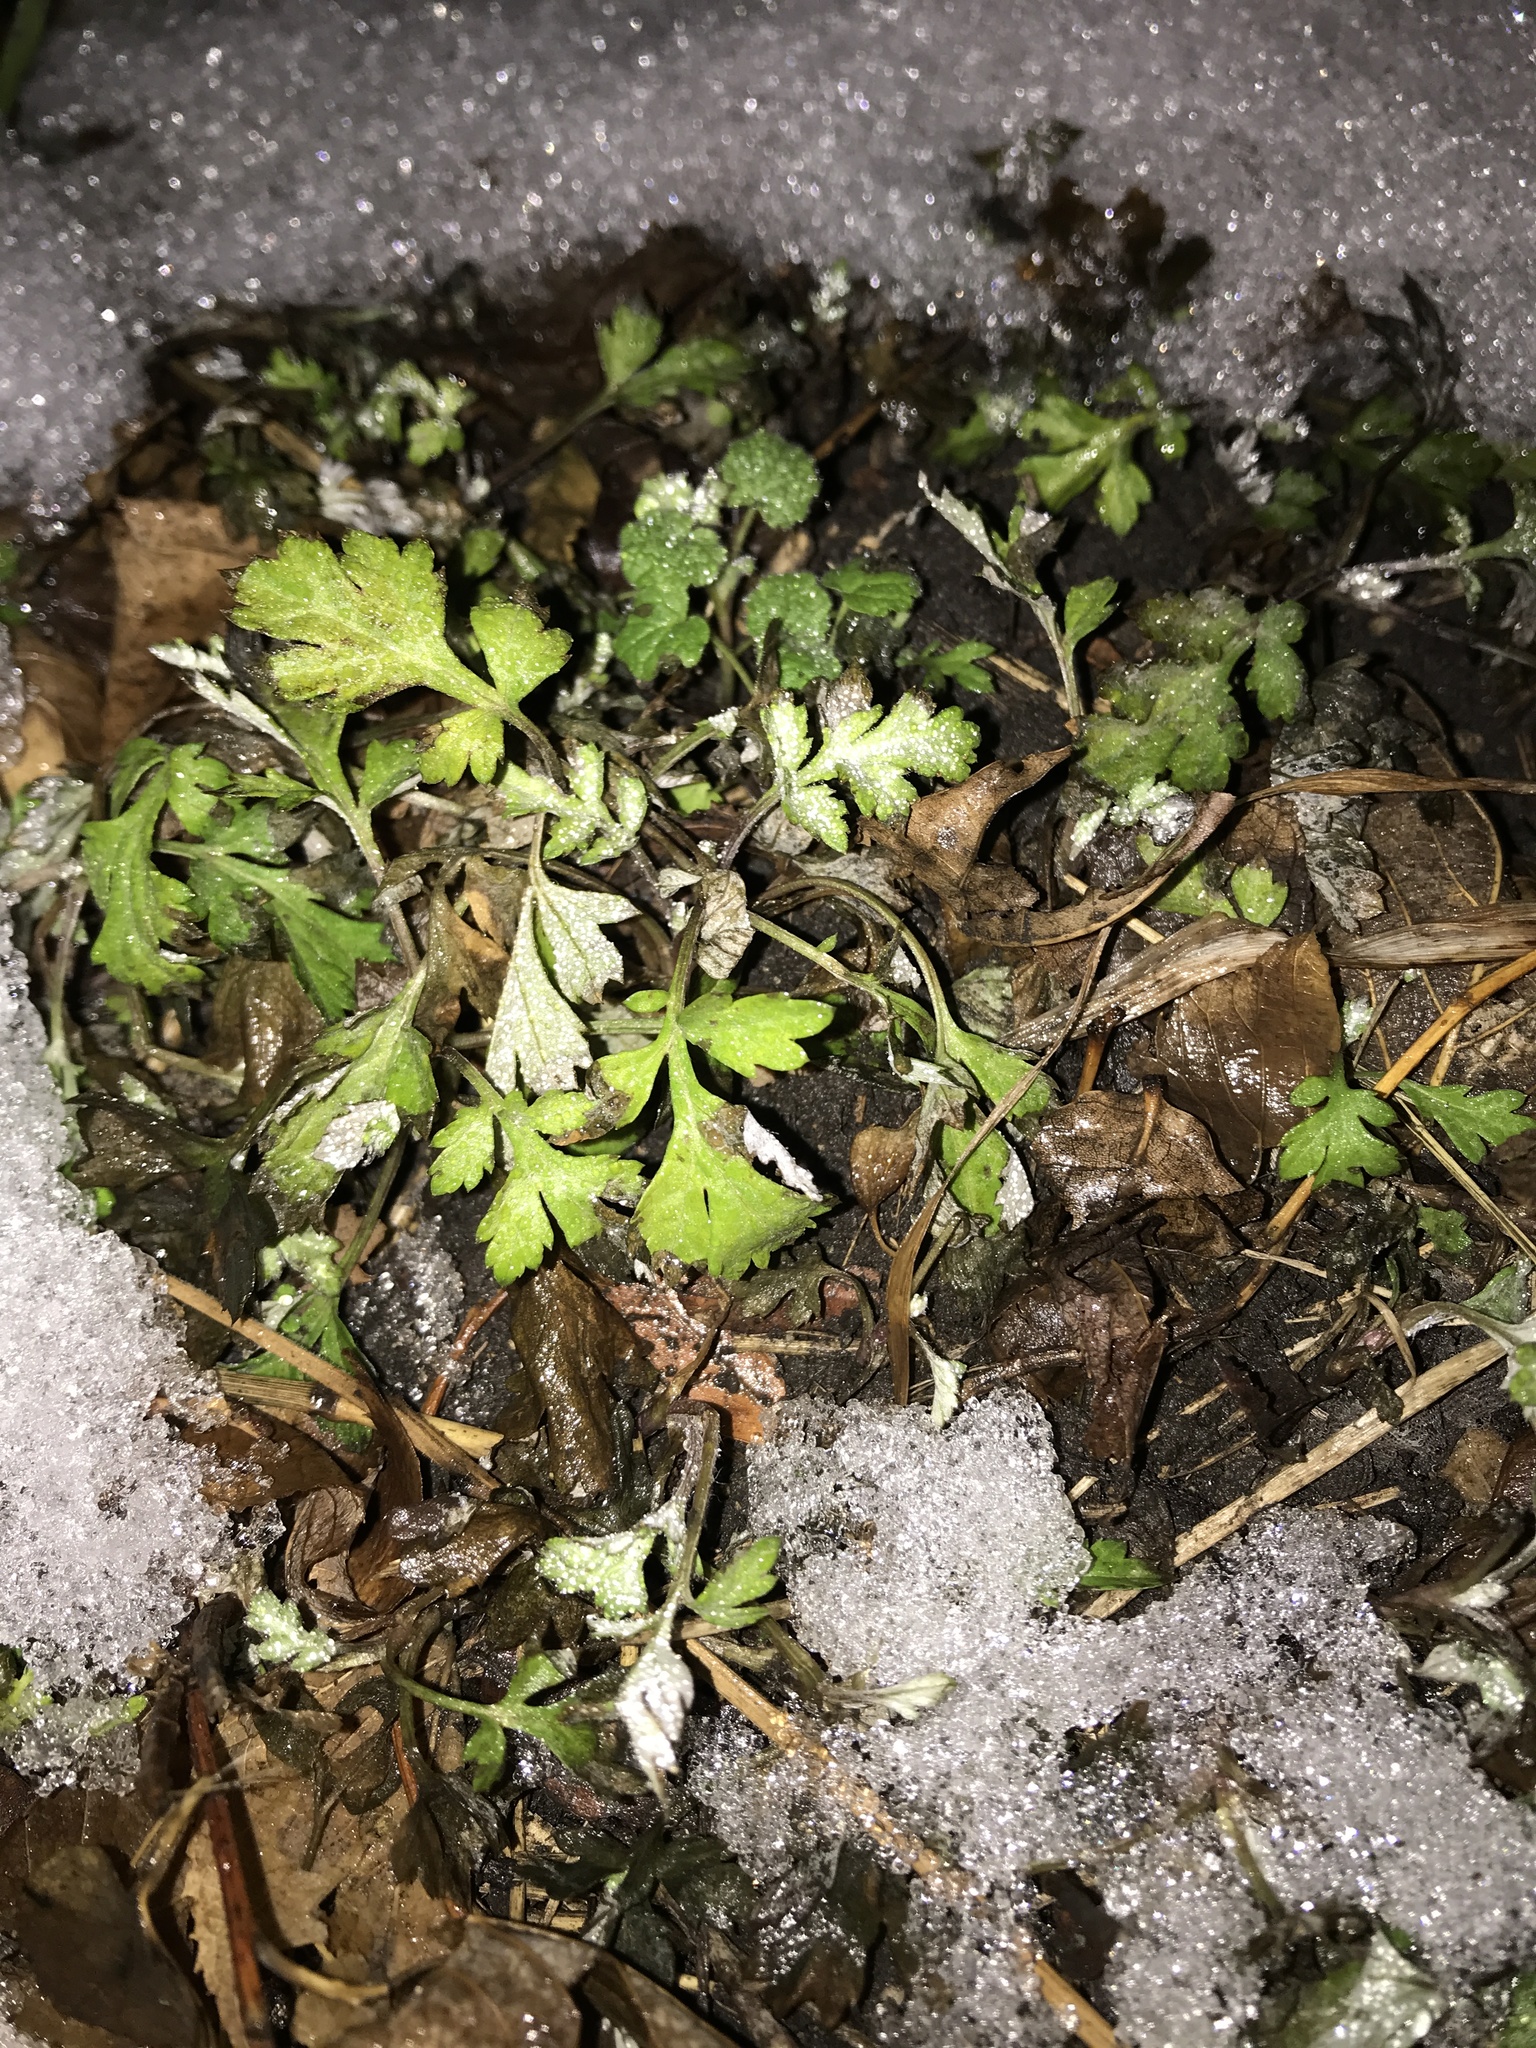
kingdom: Plantae
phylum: Tracheophyta
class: Magnoliopsida
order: Asterales
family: Asteraceae
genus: Artemisia
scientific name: Artemisia vulgaris
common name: Mugwort
